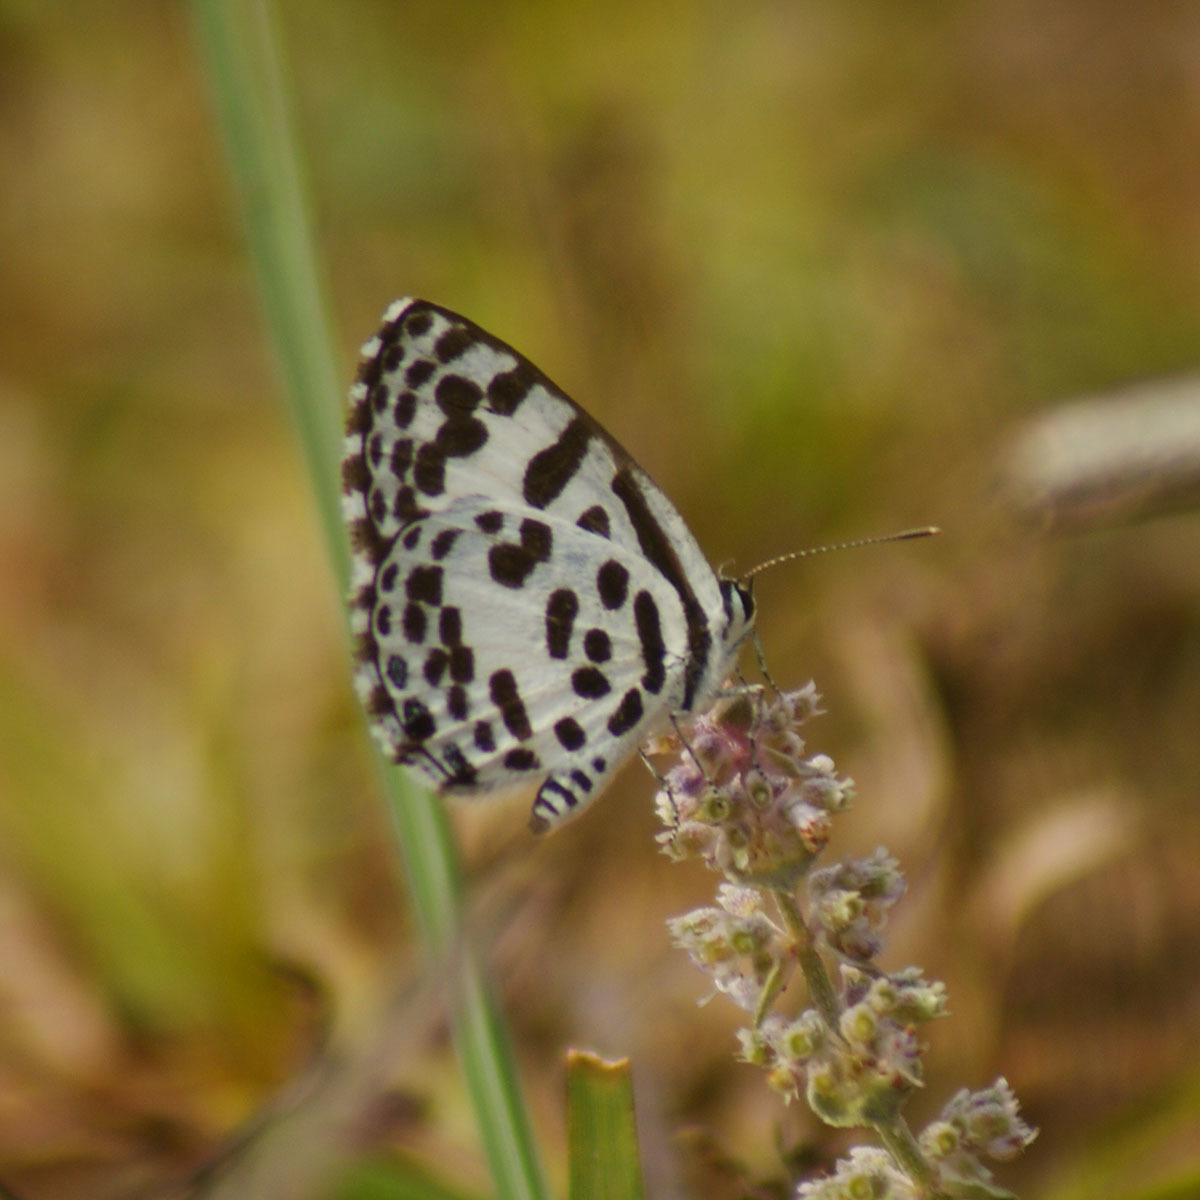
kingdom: Animalia
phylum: Arthropoda
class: Insecta
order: Lepidoptera
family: Lycaenidae
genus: Castalius
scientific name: Castalius rosimon
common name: Common pierrot
